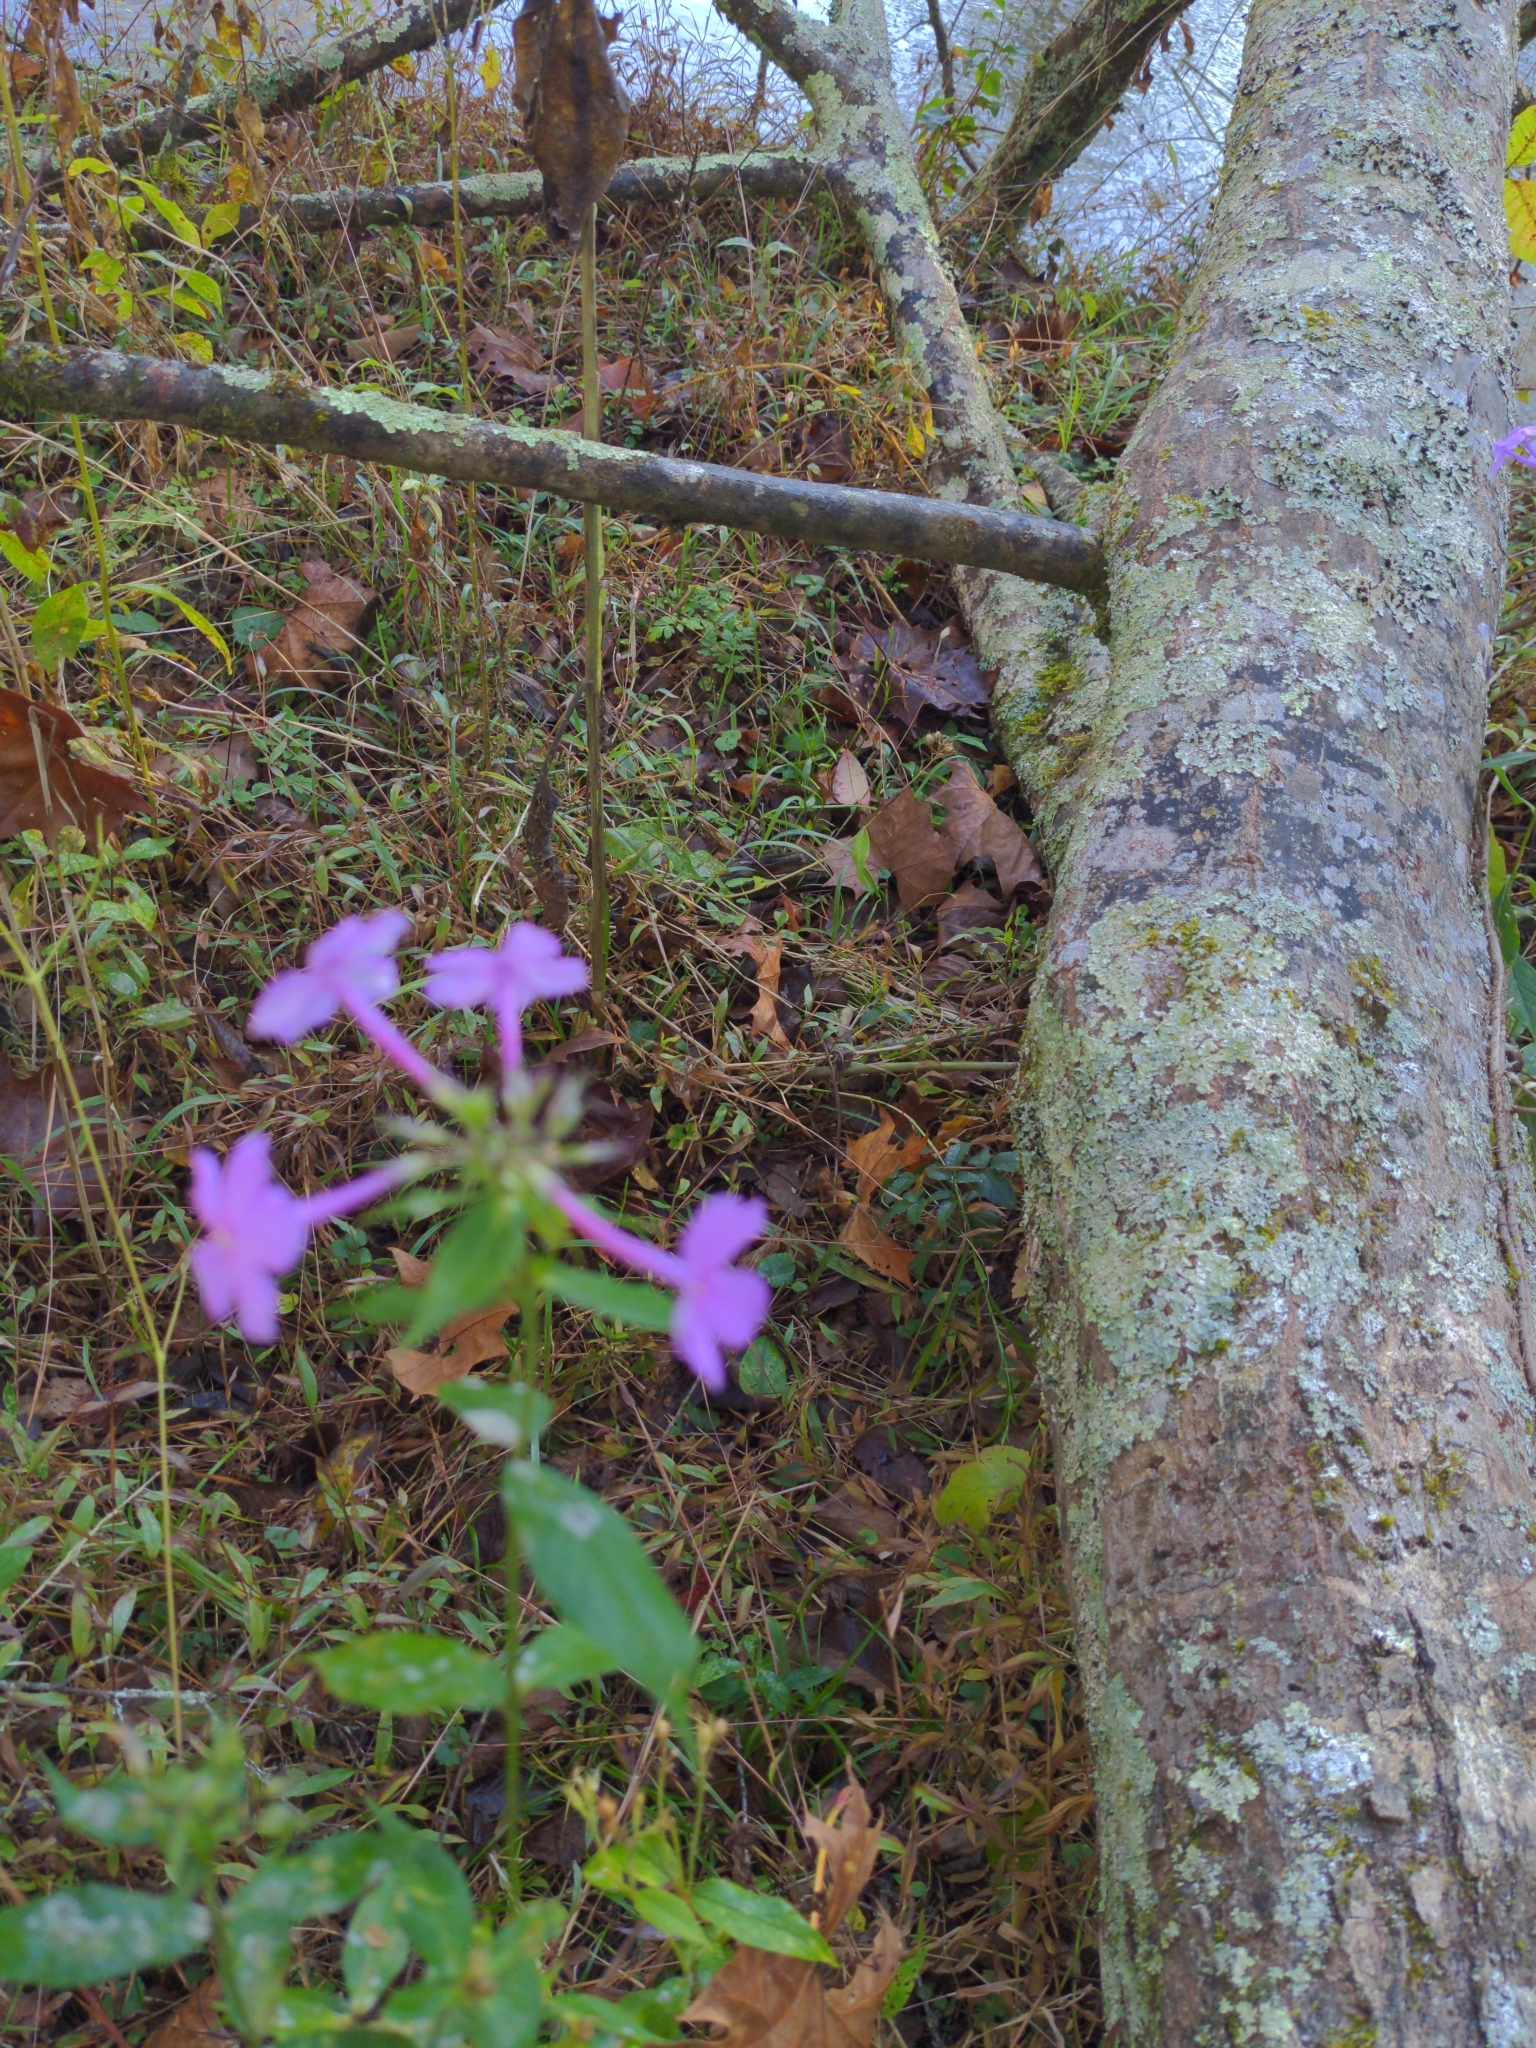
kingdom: Plantae
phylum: Tracheophyta
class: Magnoliopsida
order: Ericales
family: Polemoniaceae
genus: Phlox
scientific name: Phlox paniculata
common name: Fall phlox
